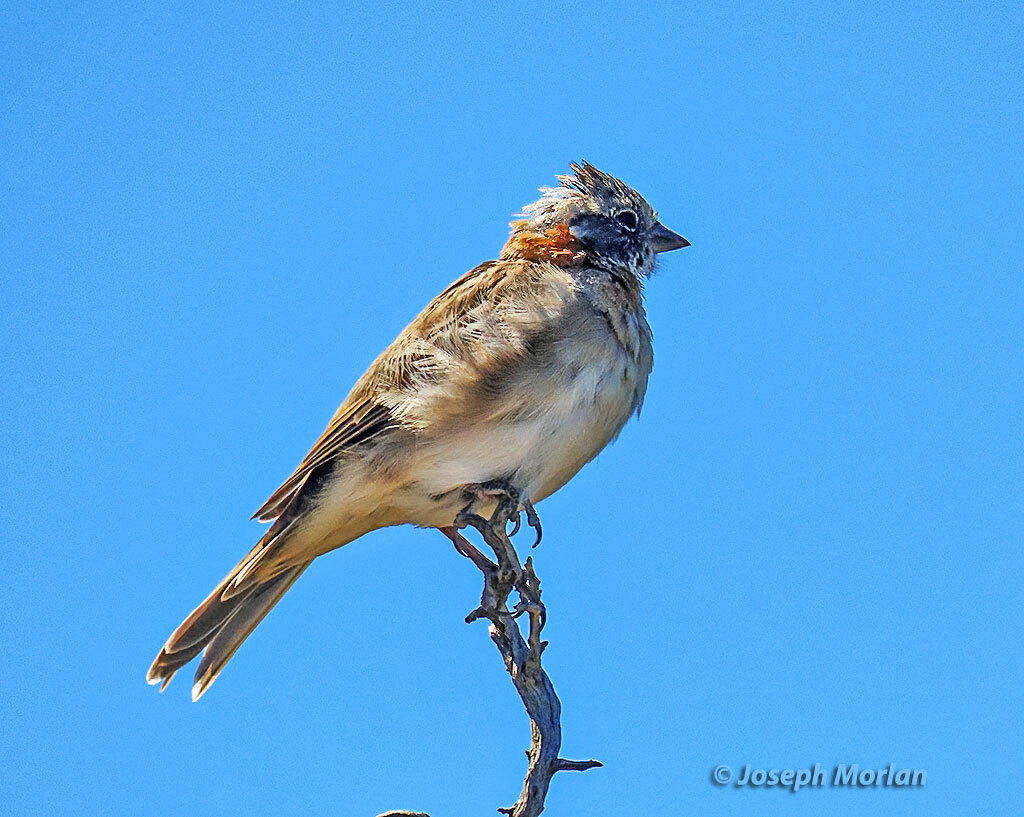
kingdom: Animalia
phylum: Chordata
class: Aves
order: Passeriformes
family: Passerellidae
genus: Zonotrichia
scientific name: Zonotrichia capensis
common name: Rufous-collared sparrow
